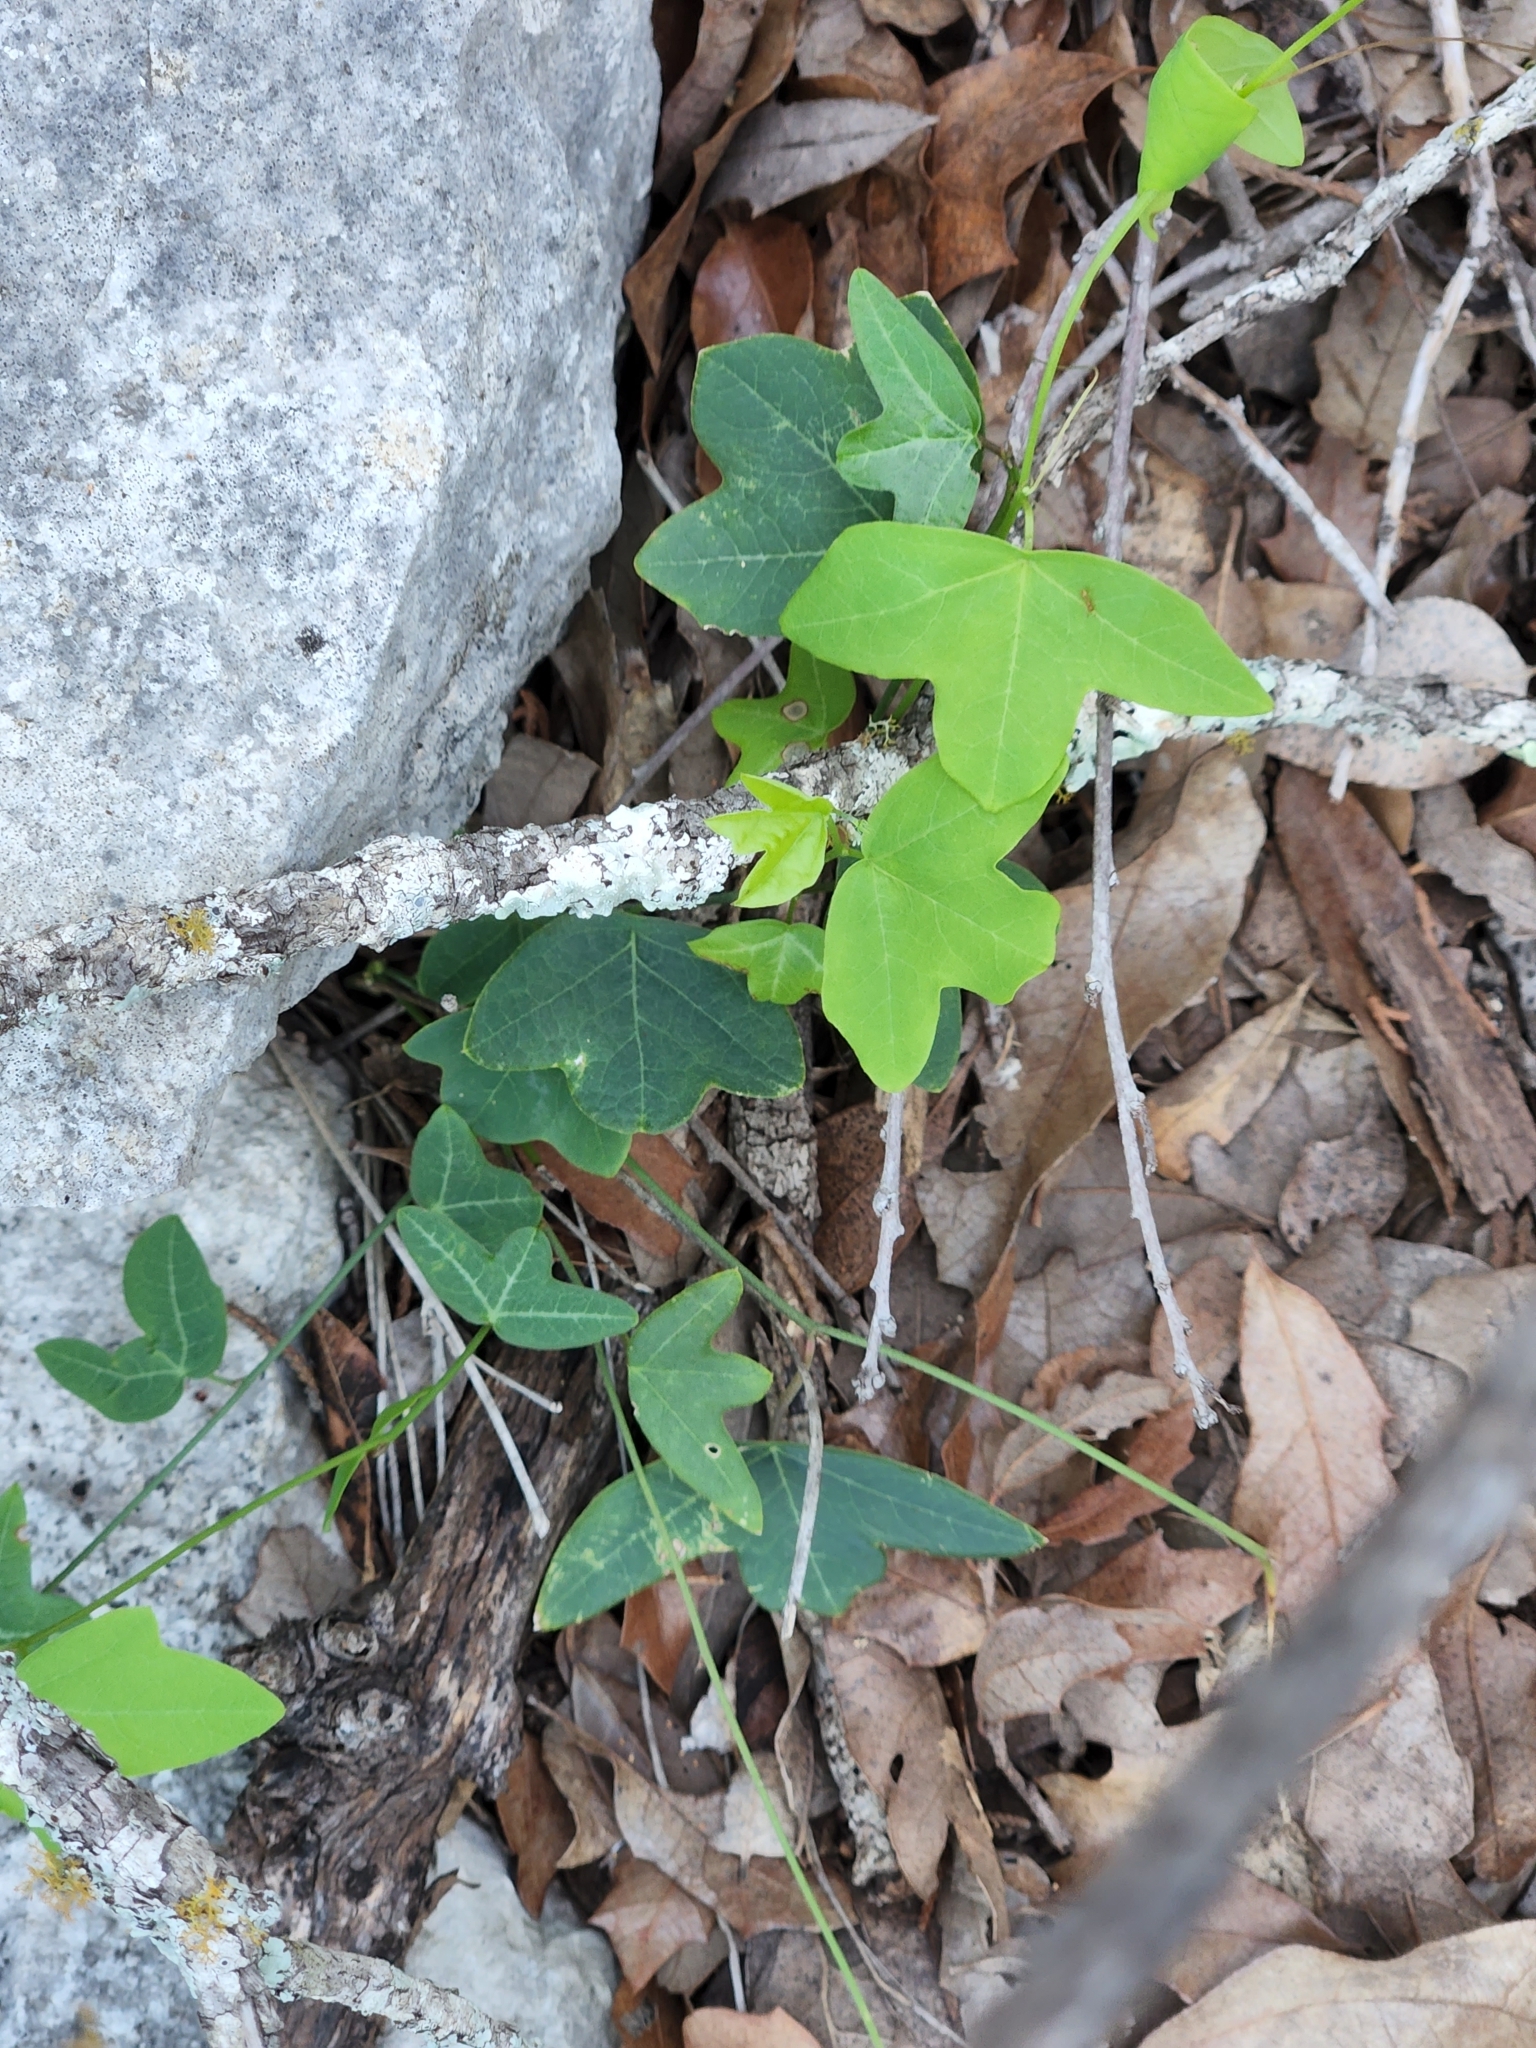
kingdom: Plantae
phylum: Tracheophyta
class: Magnoliopsida
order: Malpighiales
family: Passifloraceae
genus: Passiflora
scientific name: Passiflora tenuiloba
